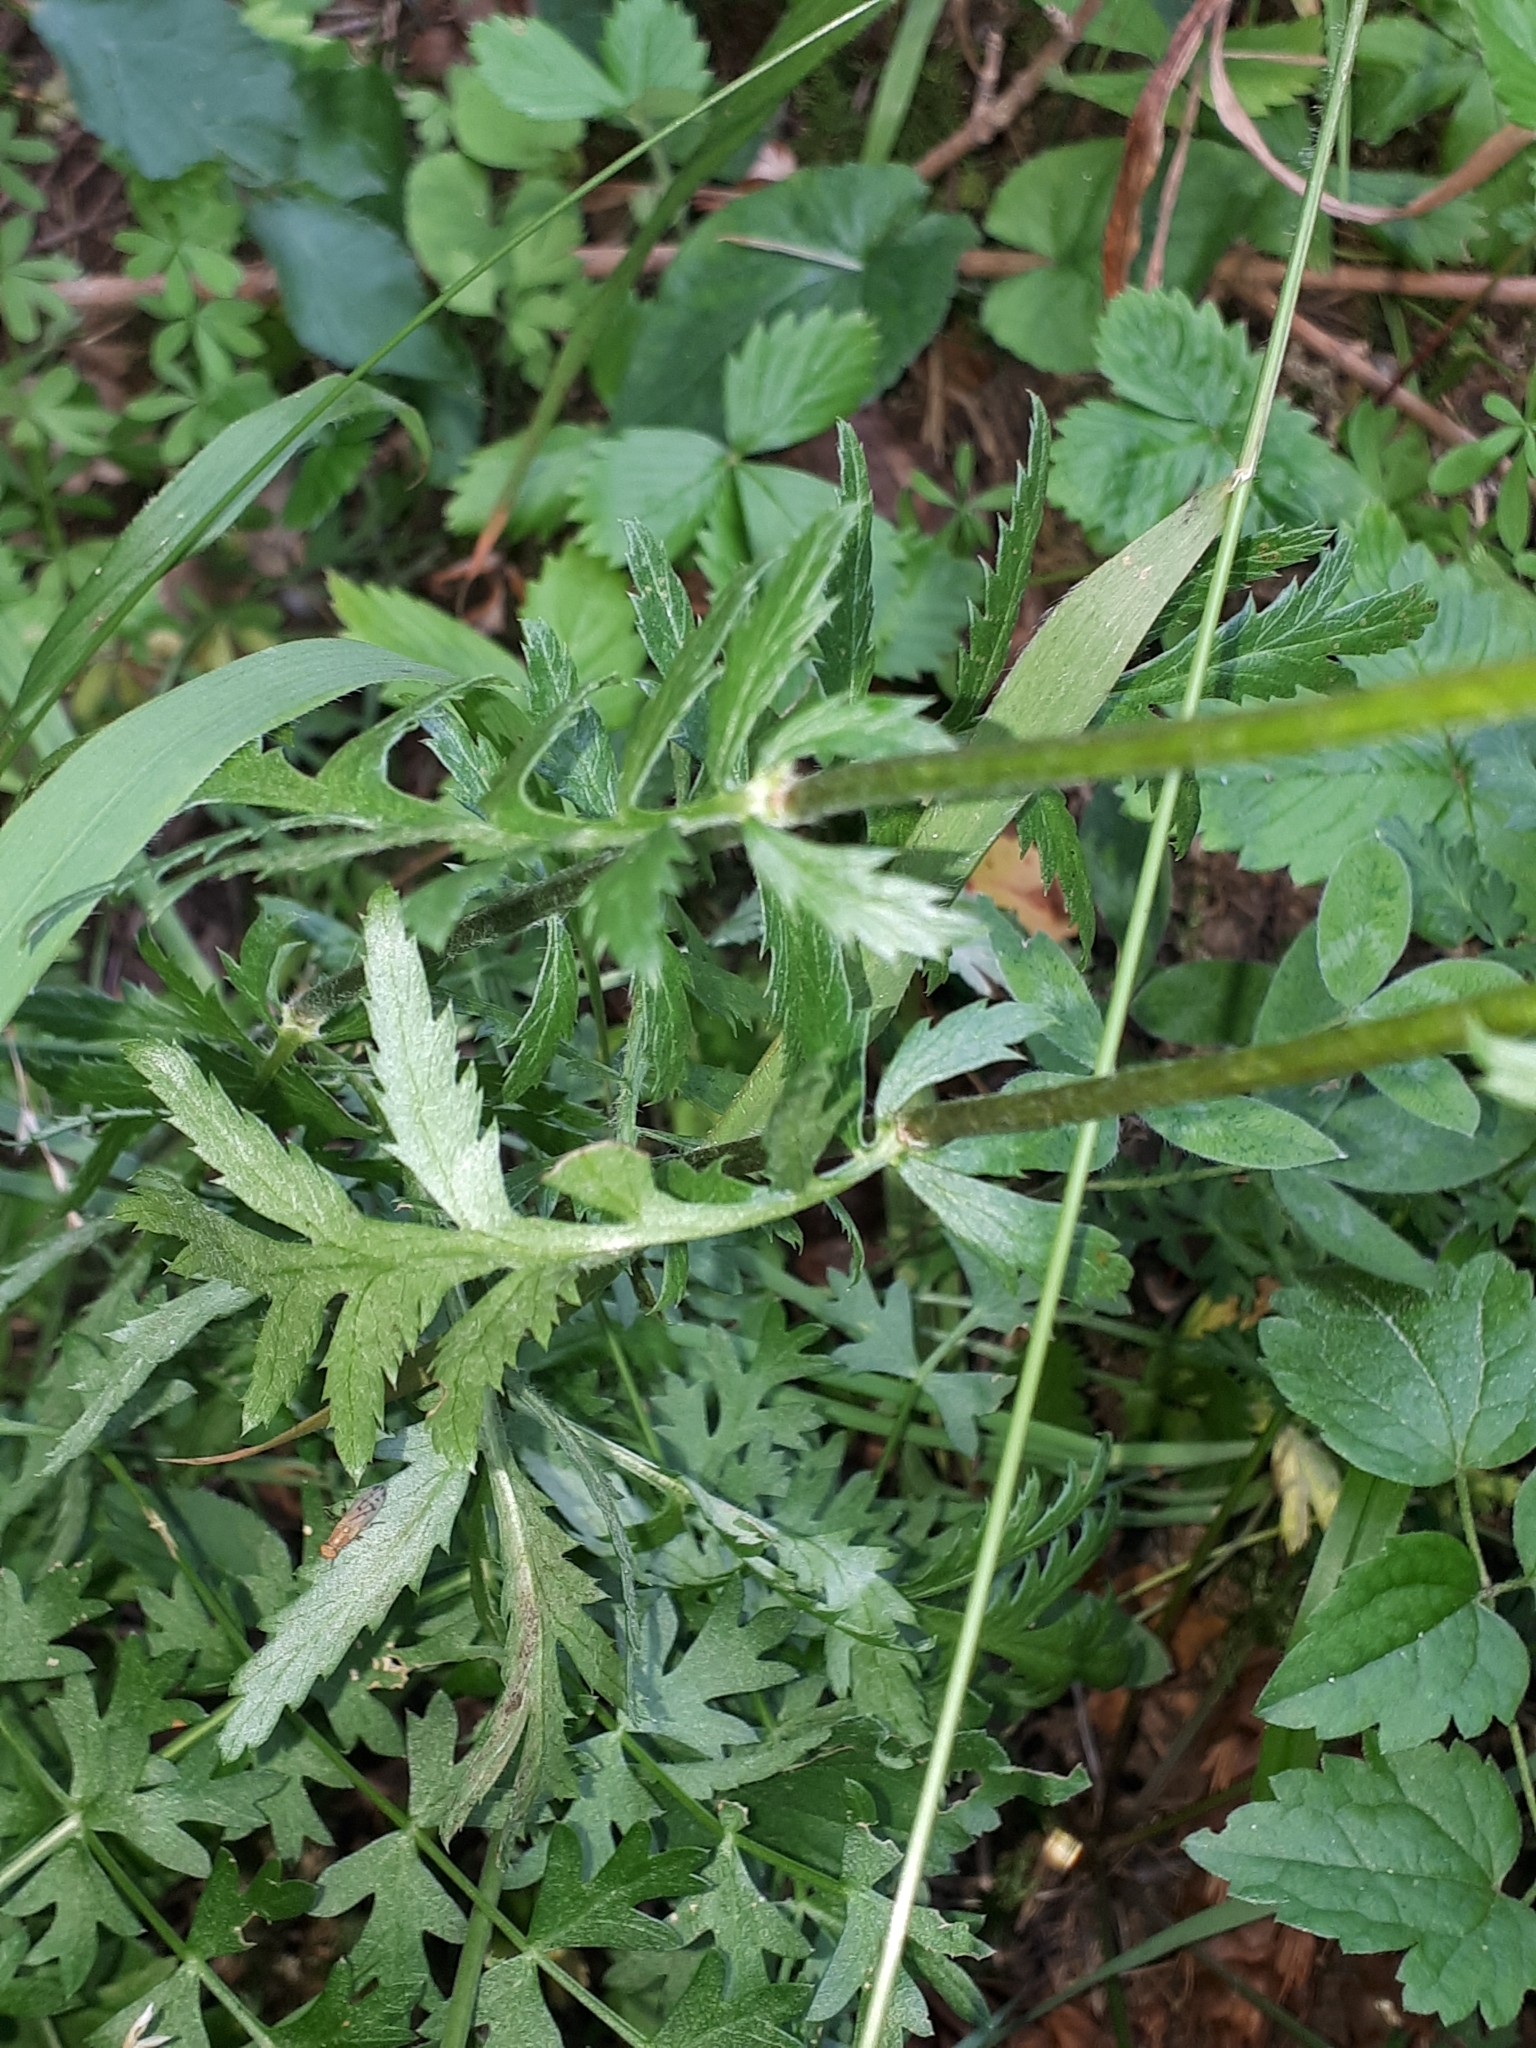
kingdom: Plantae
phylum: Tracheophyta
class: Magnoliopsida
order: Asterales
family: Asteraceae
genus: Tanacetum
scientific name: Tanacetum corymbosum
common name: Scentless feverfew
